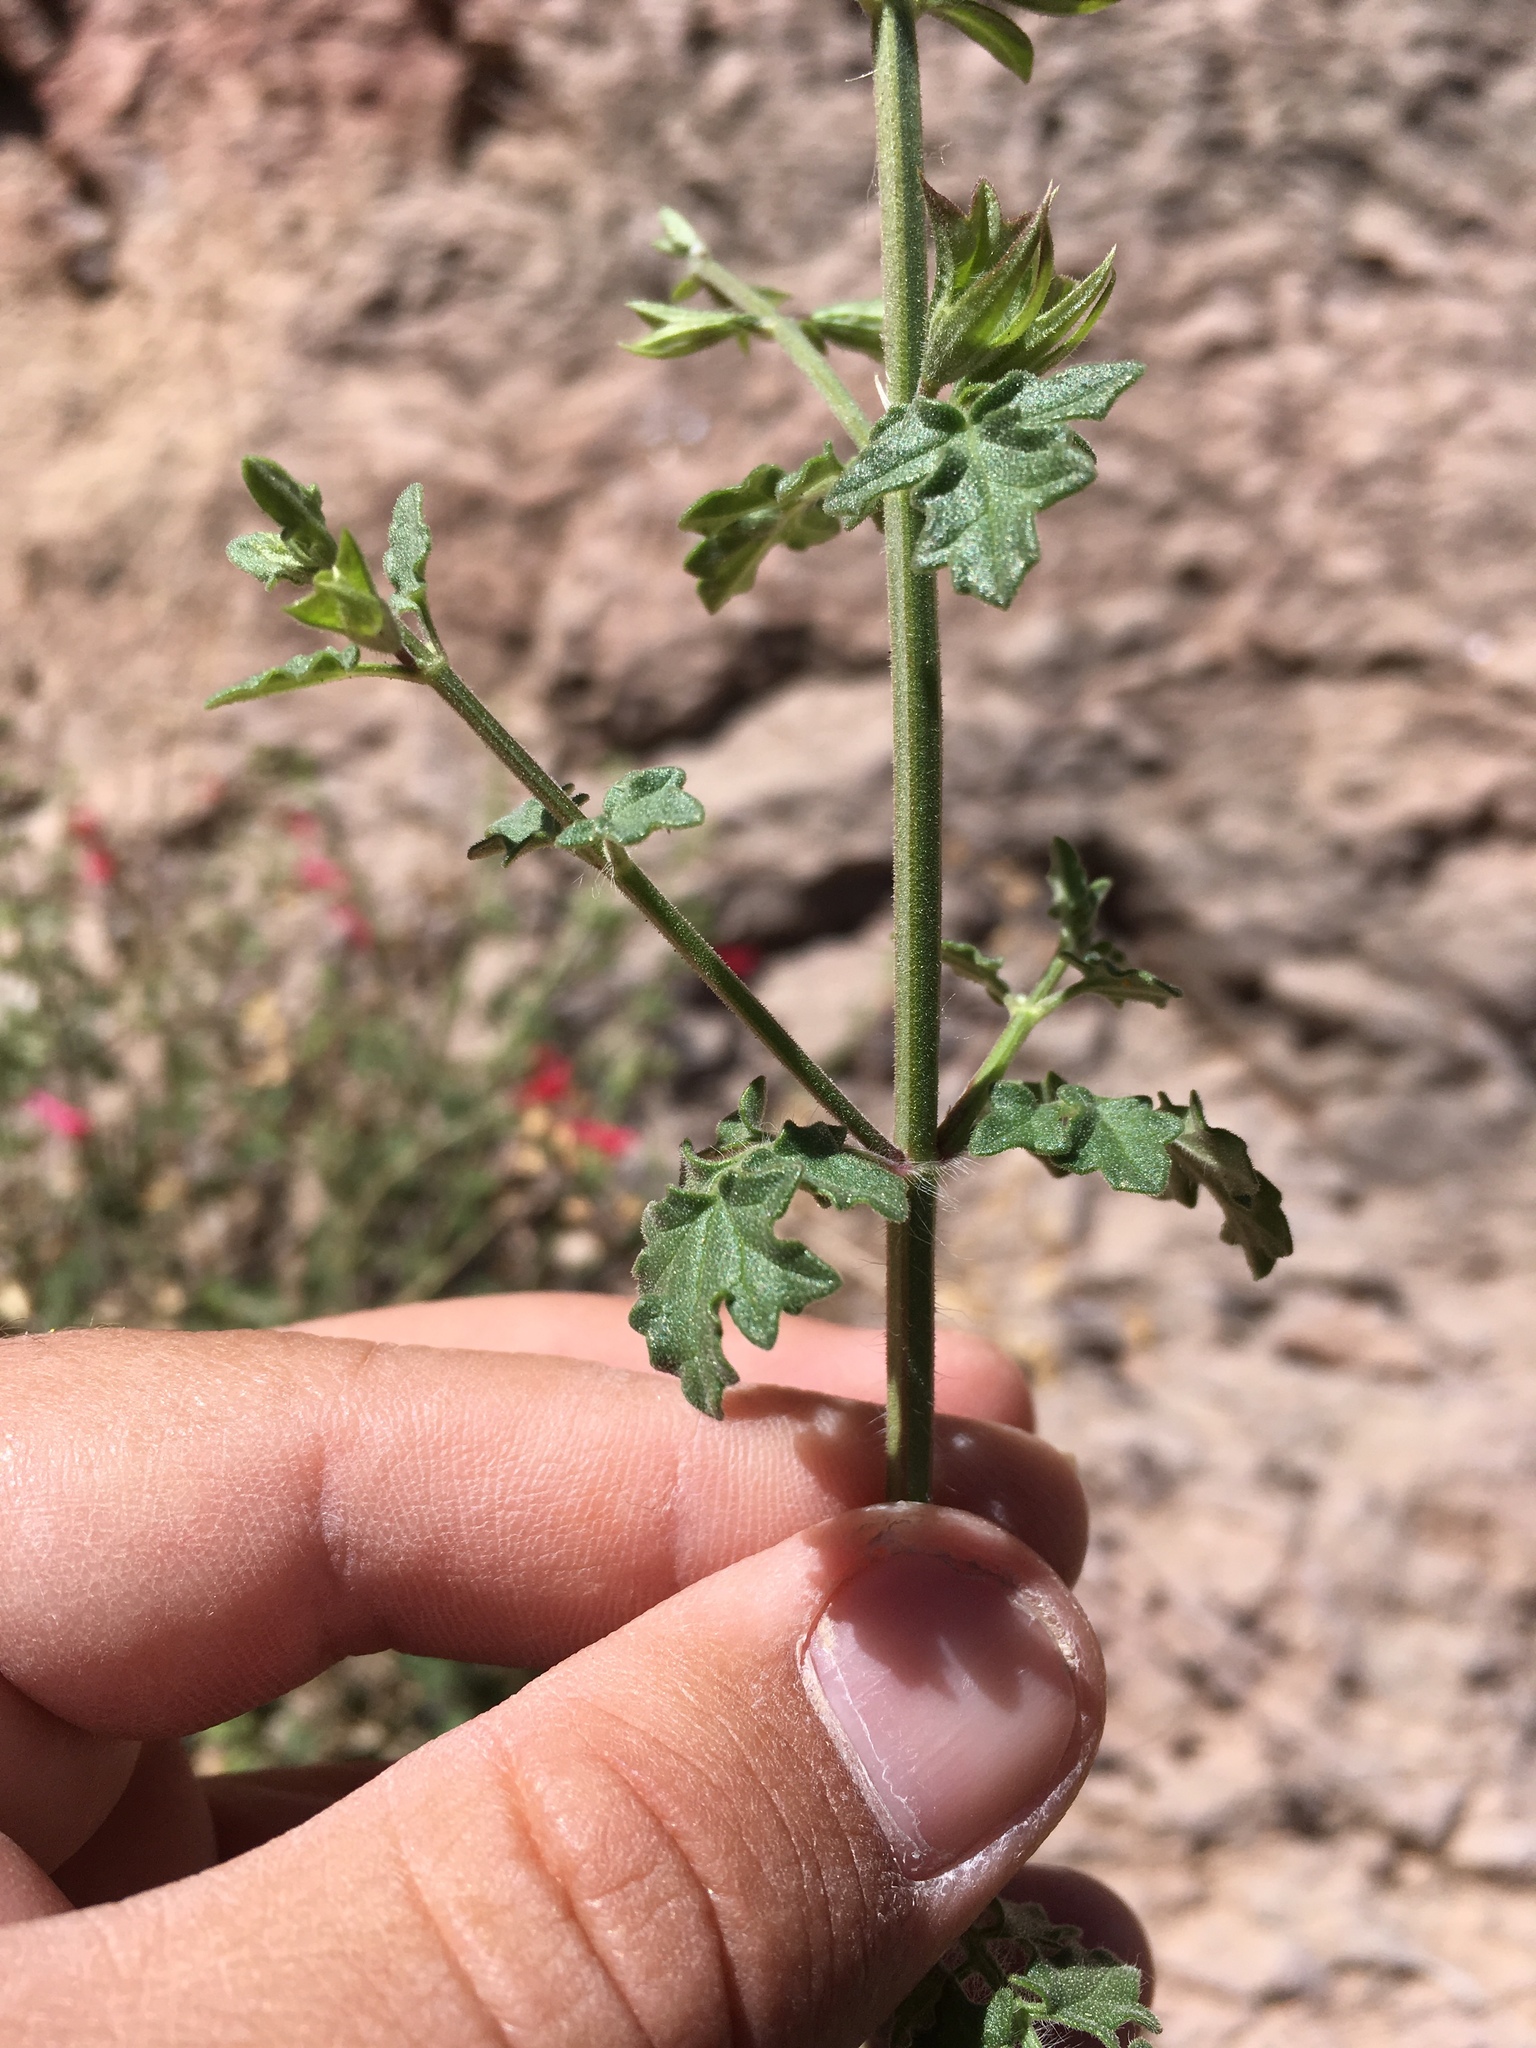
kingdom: Plantae
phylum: Tracheophyta
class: Magnoliopsida
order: Lamiales
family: Lamiaceae
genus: Salvia
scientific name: Salvia henryi
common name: Henry's sage
